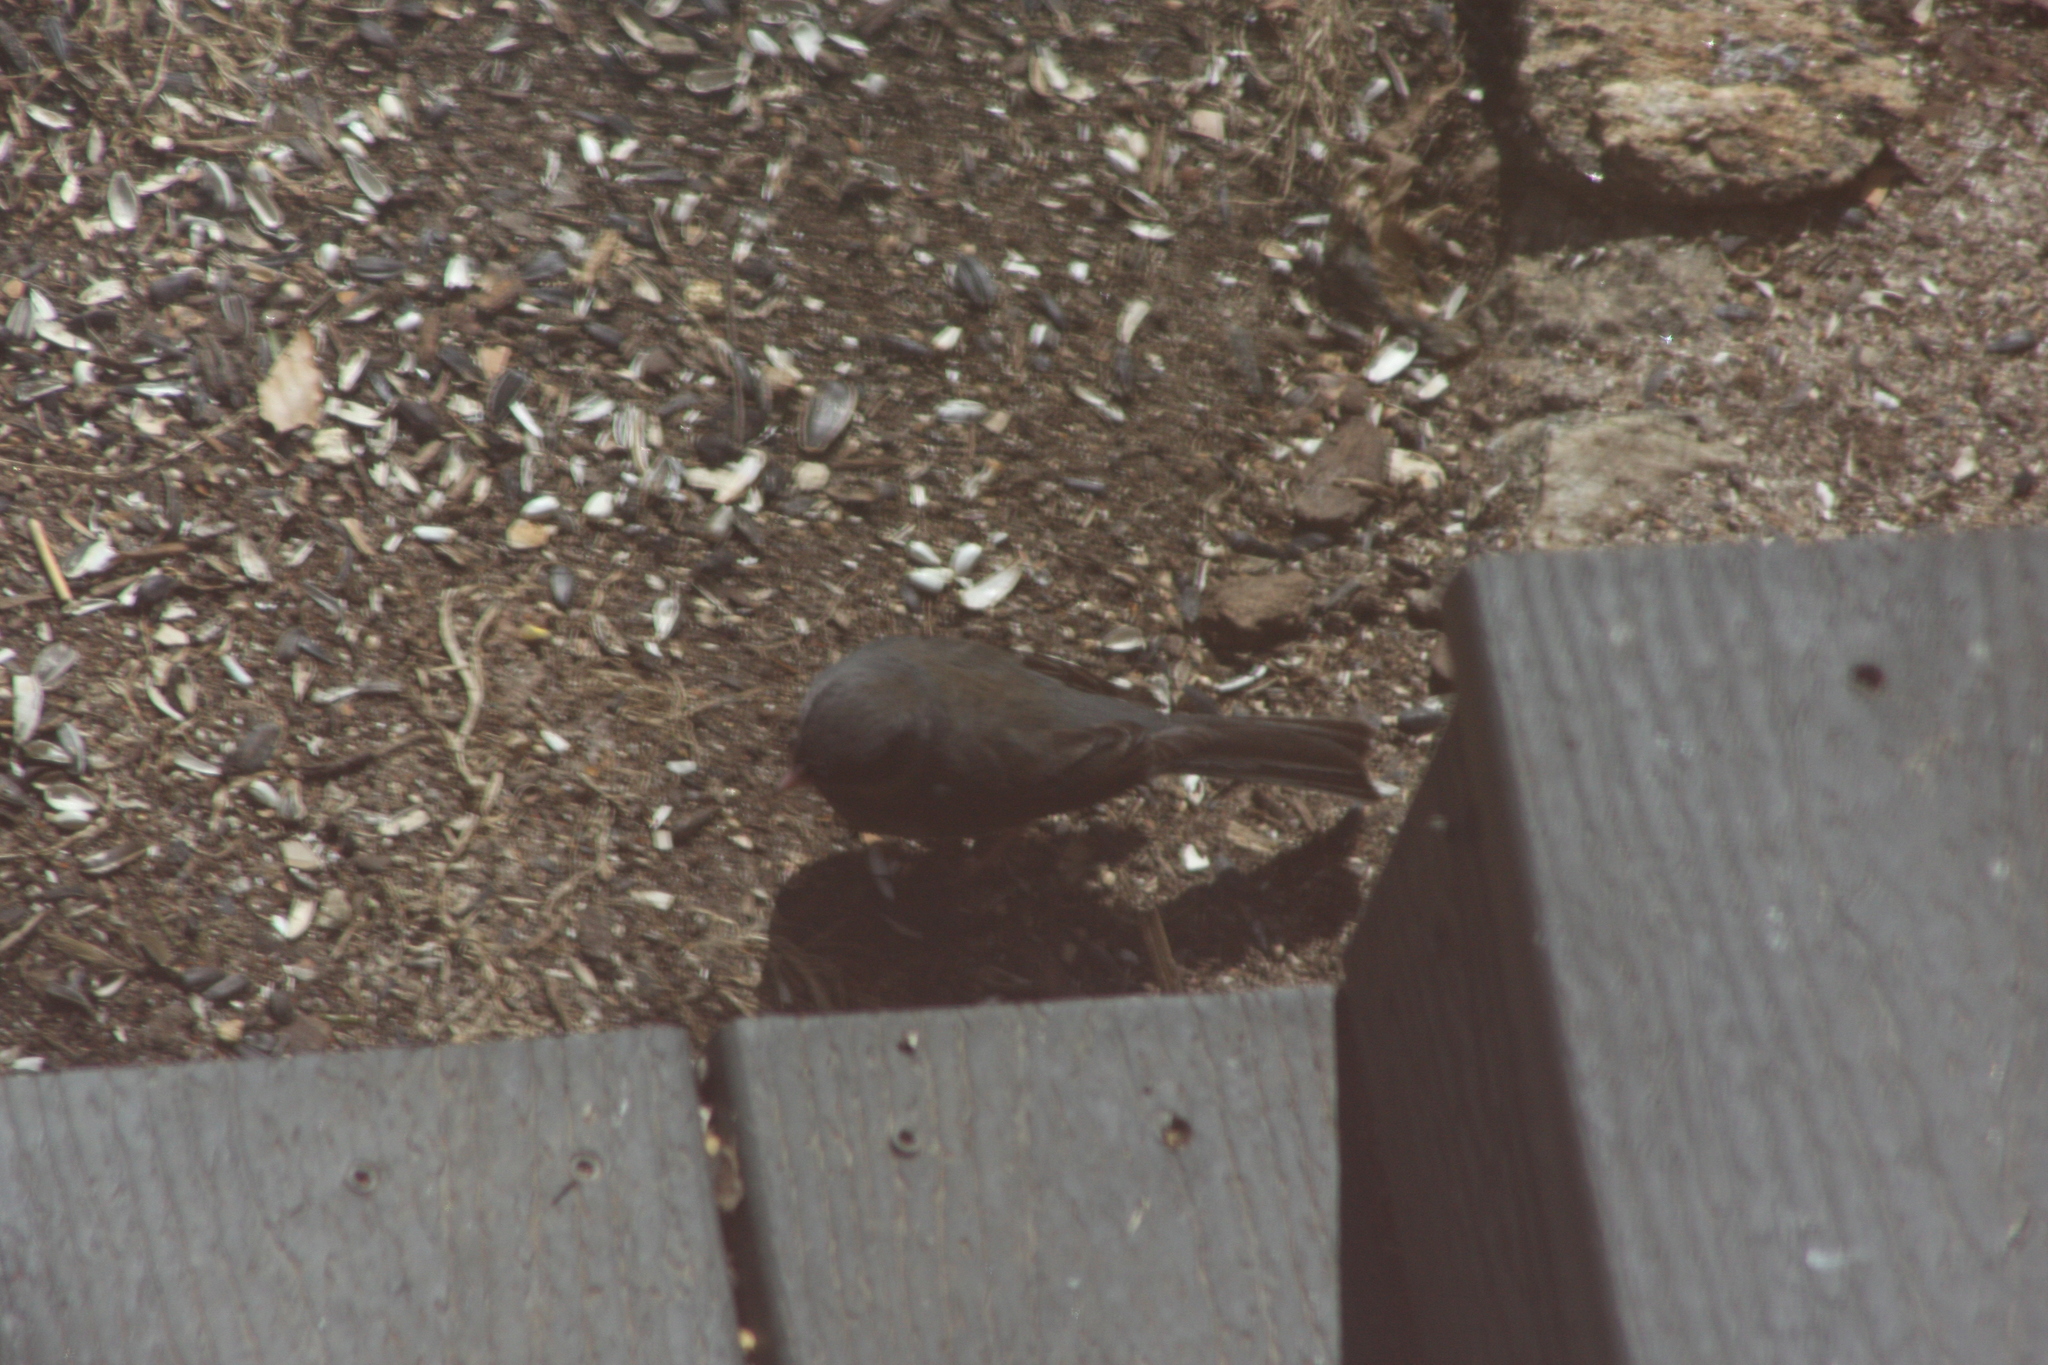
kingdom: Animalia
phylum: Chordata
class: Aves
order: Passeriformes
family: Passerellidae
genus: Junco
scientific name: Junco hyemalis
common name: Dark-eyed junco
